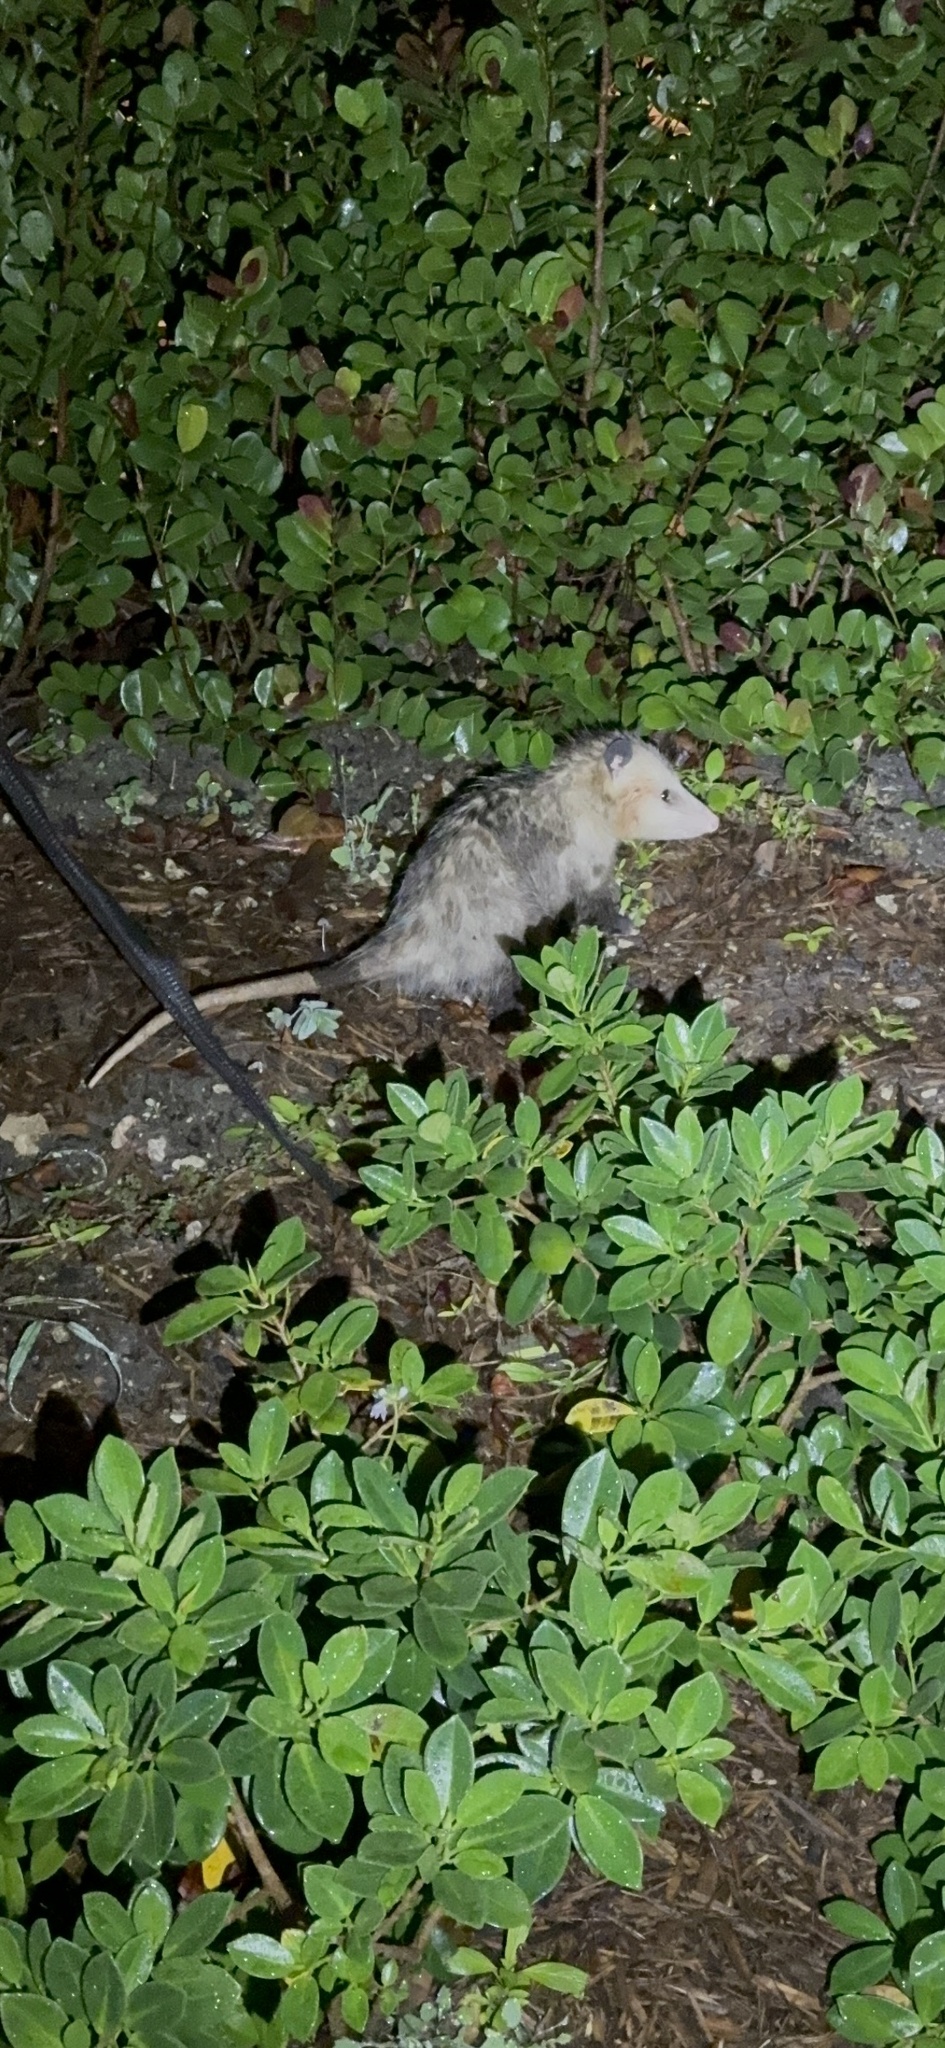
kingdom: Animalia
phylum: Chordata
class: Mammalia
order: Didelphimorphia
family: Didelphidae
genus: Didelphis
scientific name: Didelphis virginiana
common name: Virginia opossum
